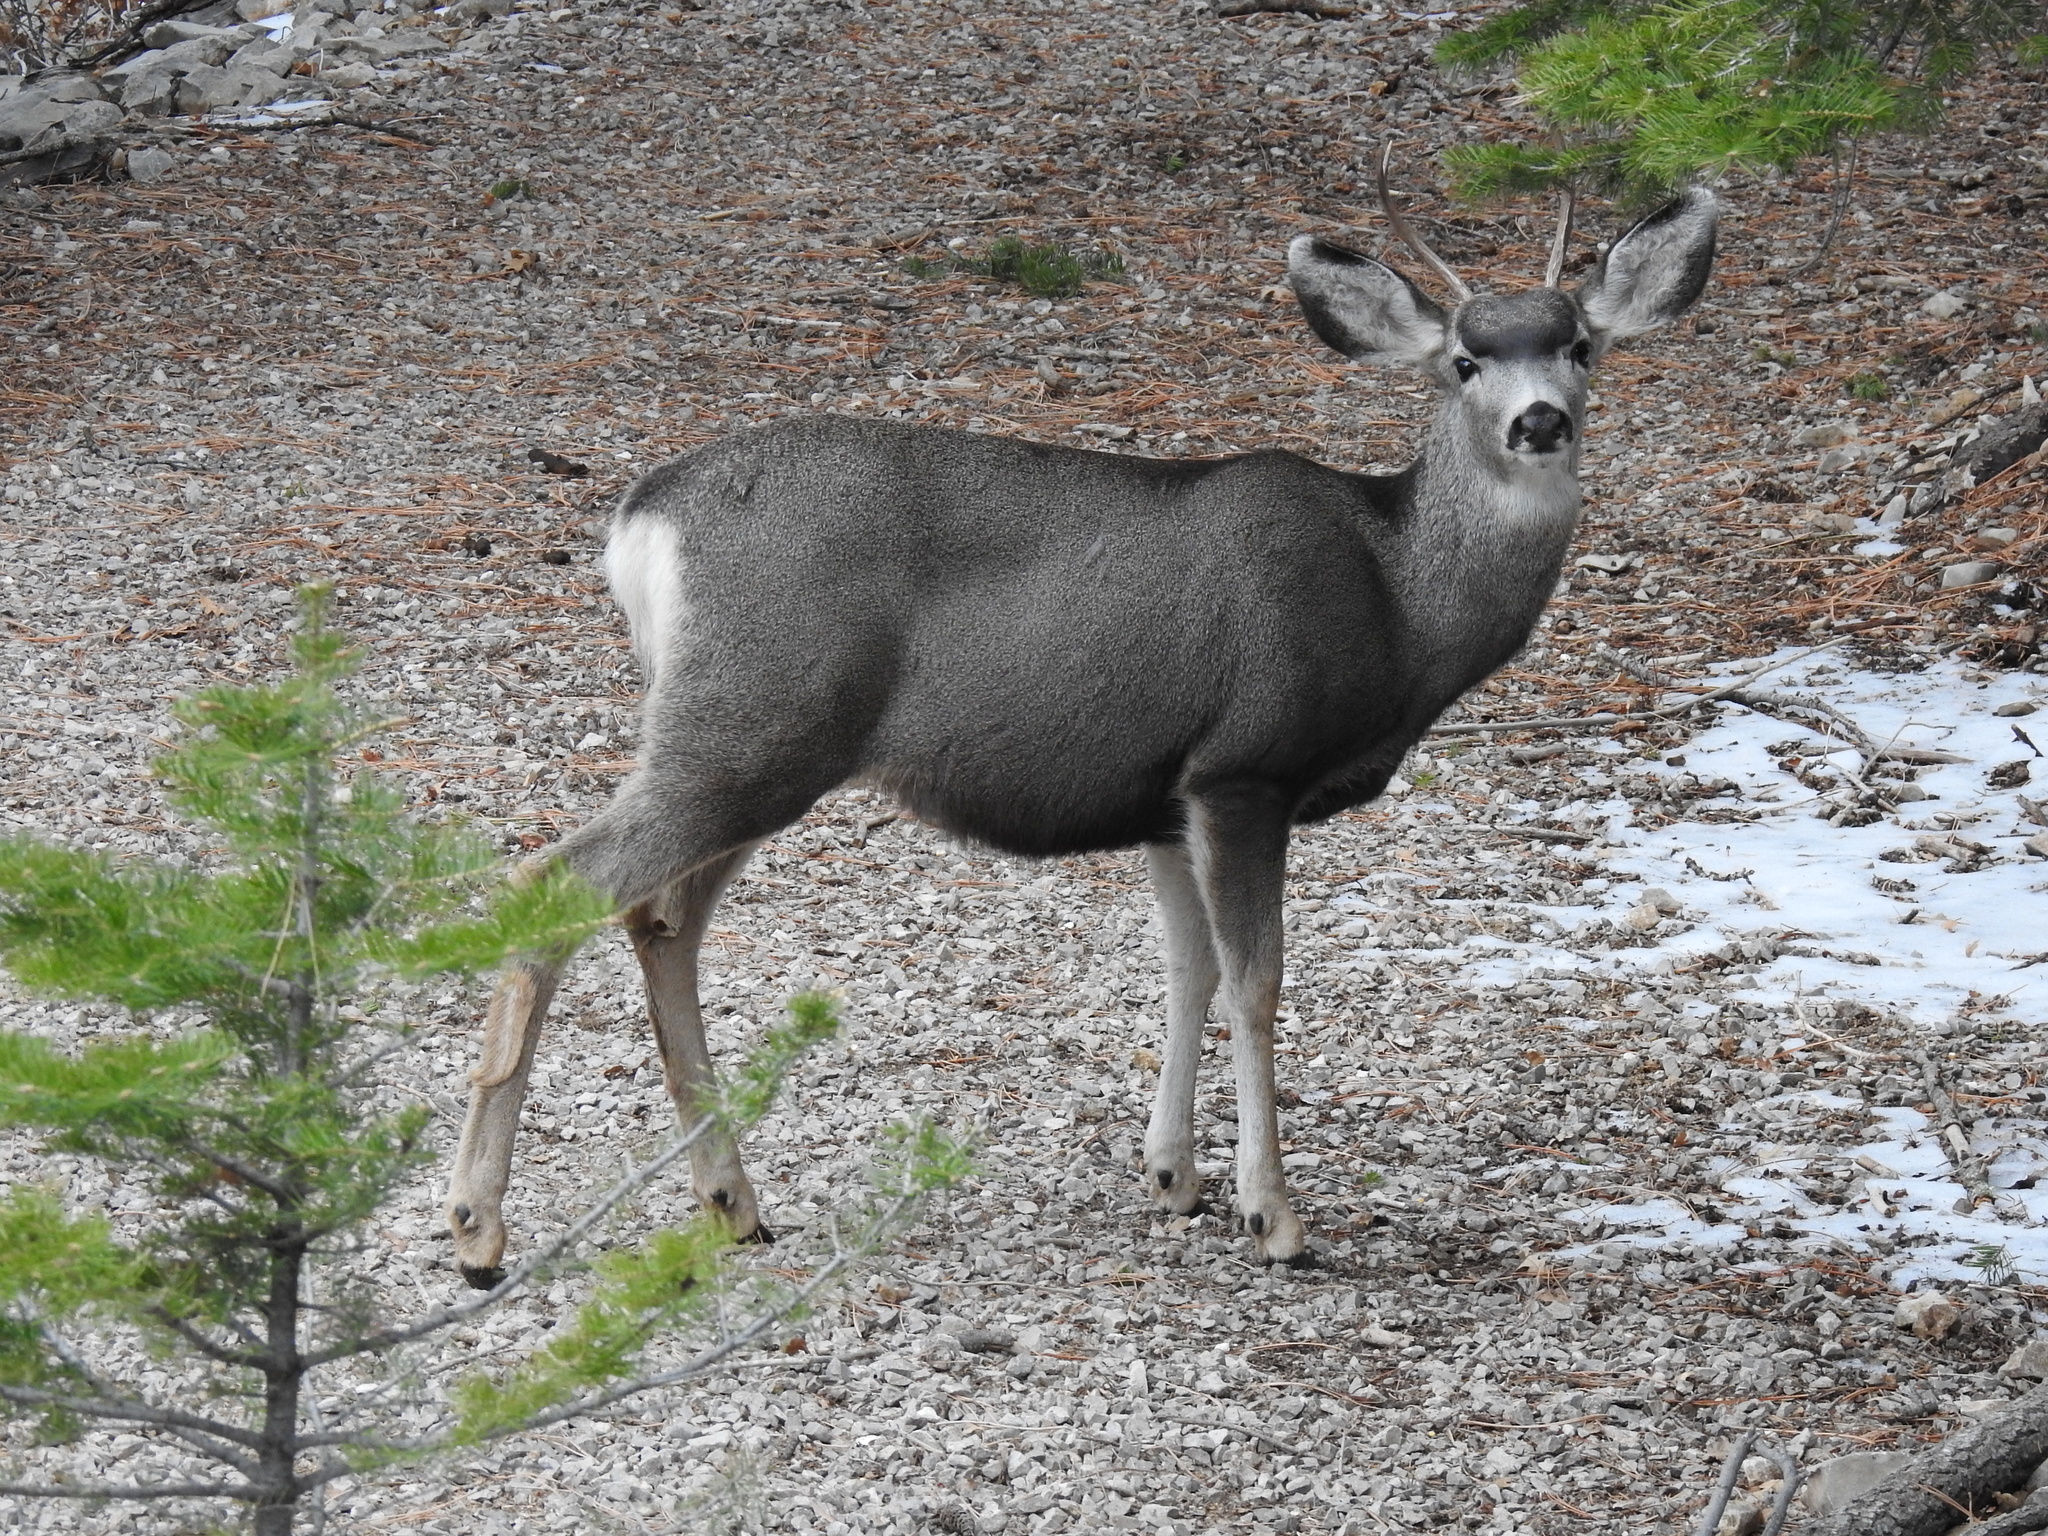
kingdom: Animalia
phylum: Chordata
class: Mammalia
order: Artiodactyla
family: Cervidae
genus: Odocoileus
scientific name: Odocoileus hemionus
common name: Mule deer
